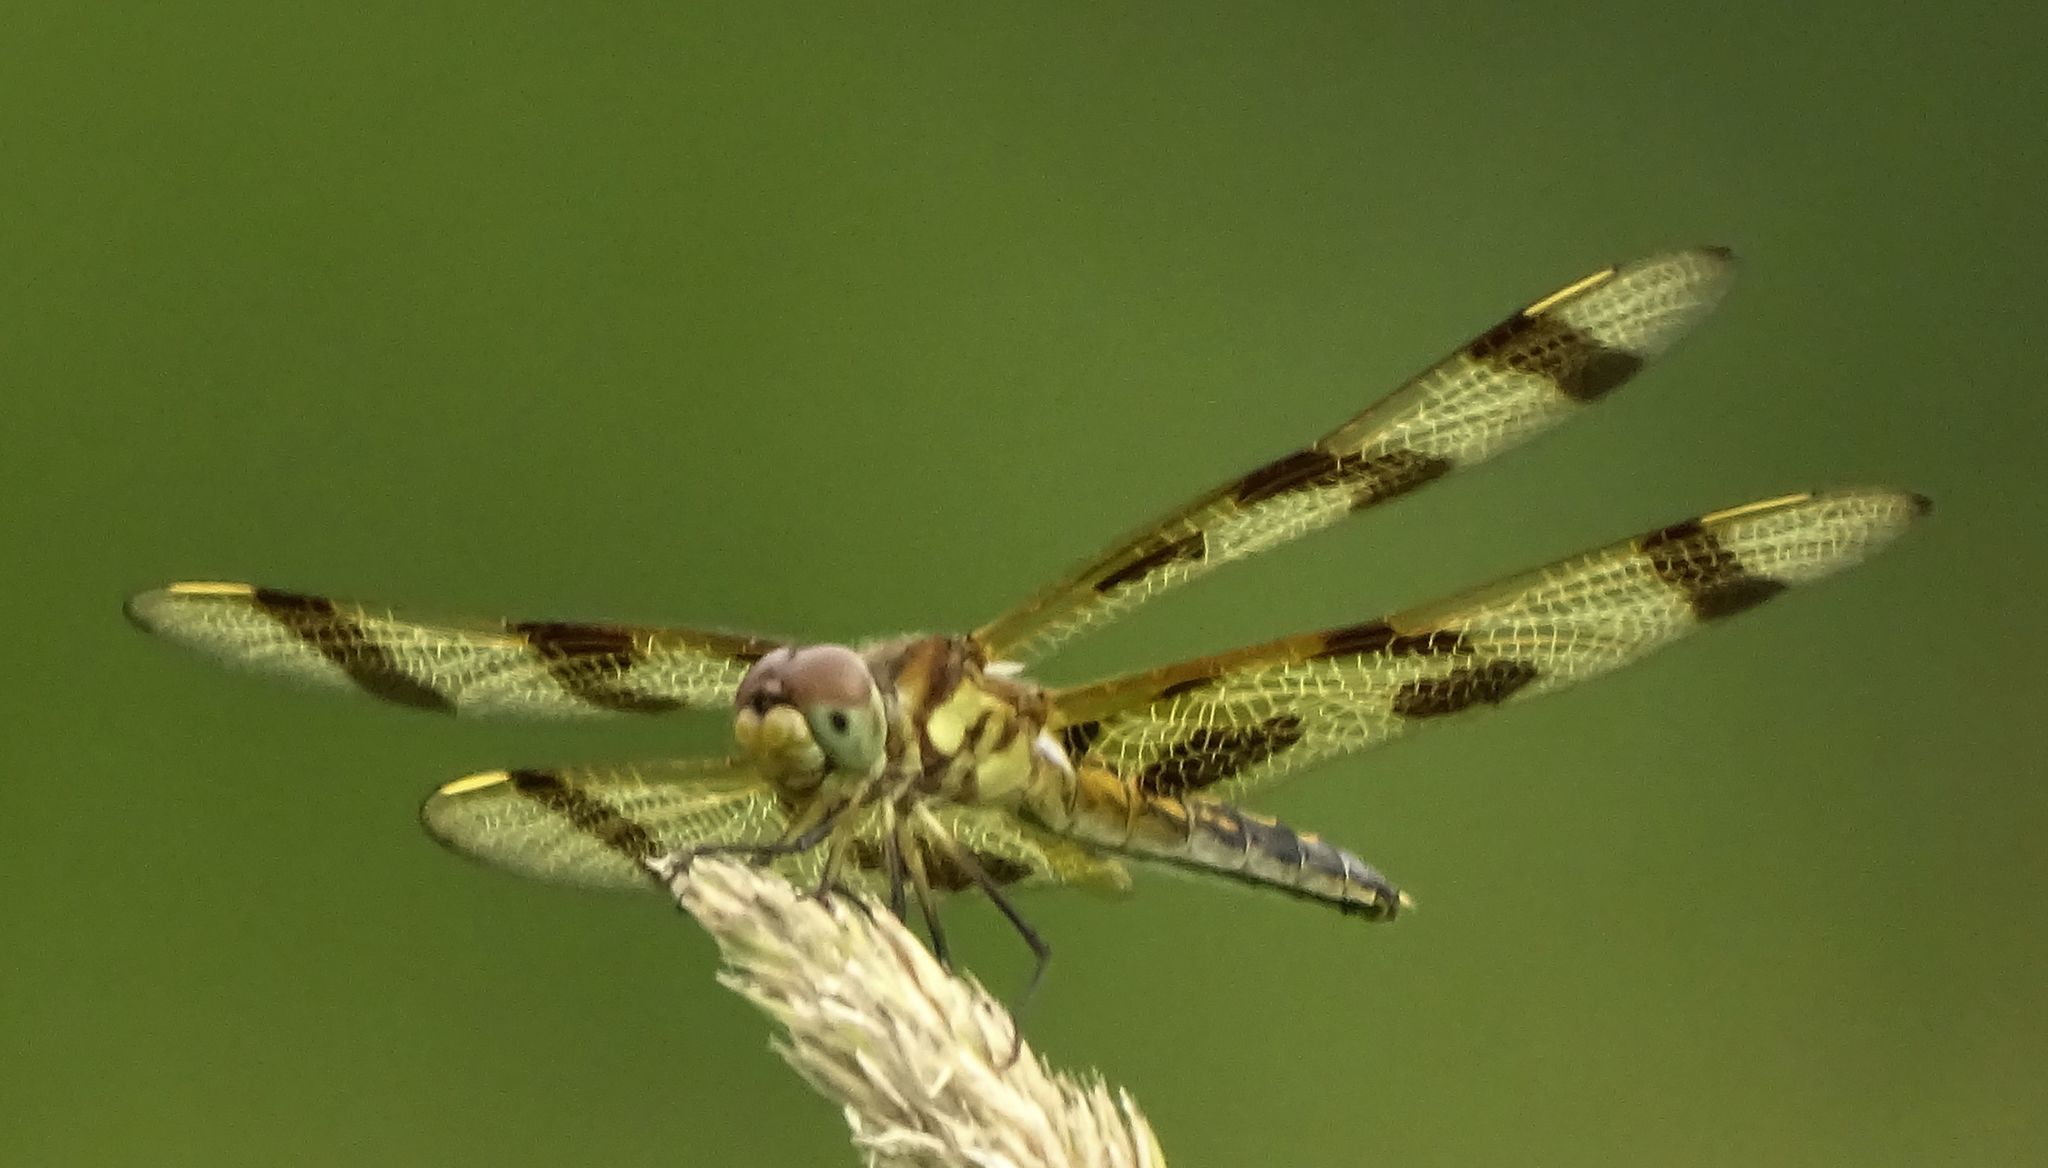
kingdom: Animalia
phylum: Arthropoda
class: Insecta
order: Odonata
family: Libellulidae
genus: Celithemis
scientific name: Celithemis eponina
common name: Halloween pennant
